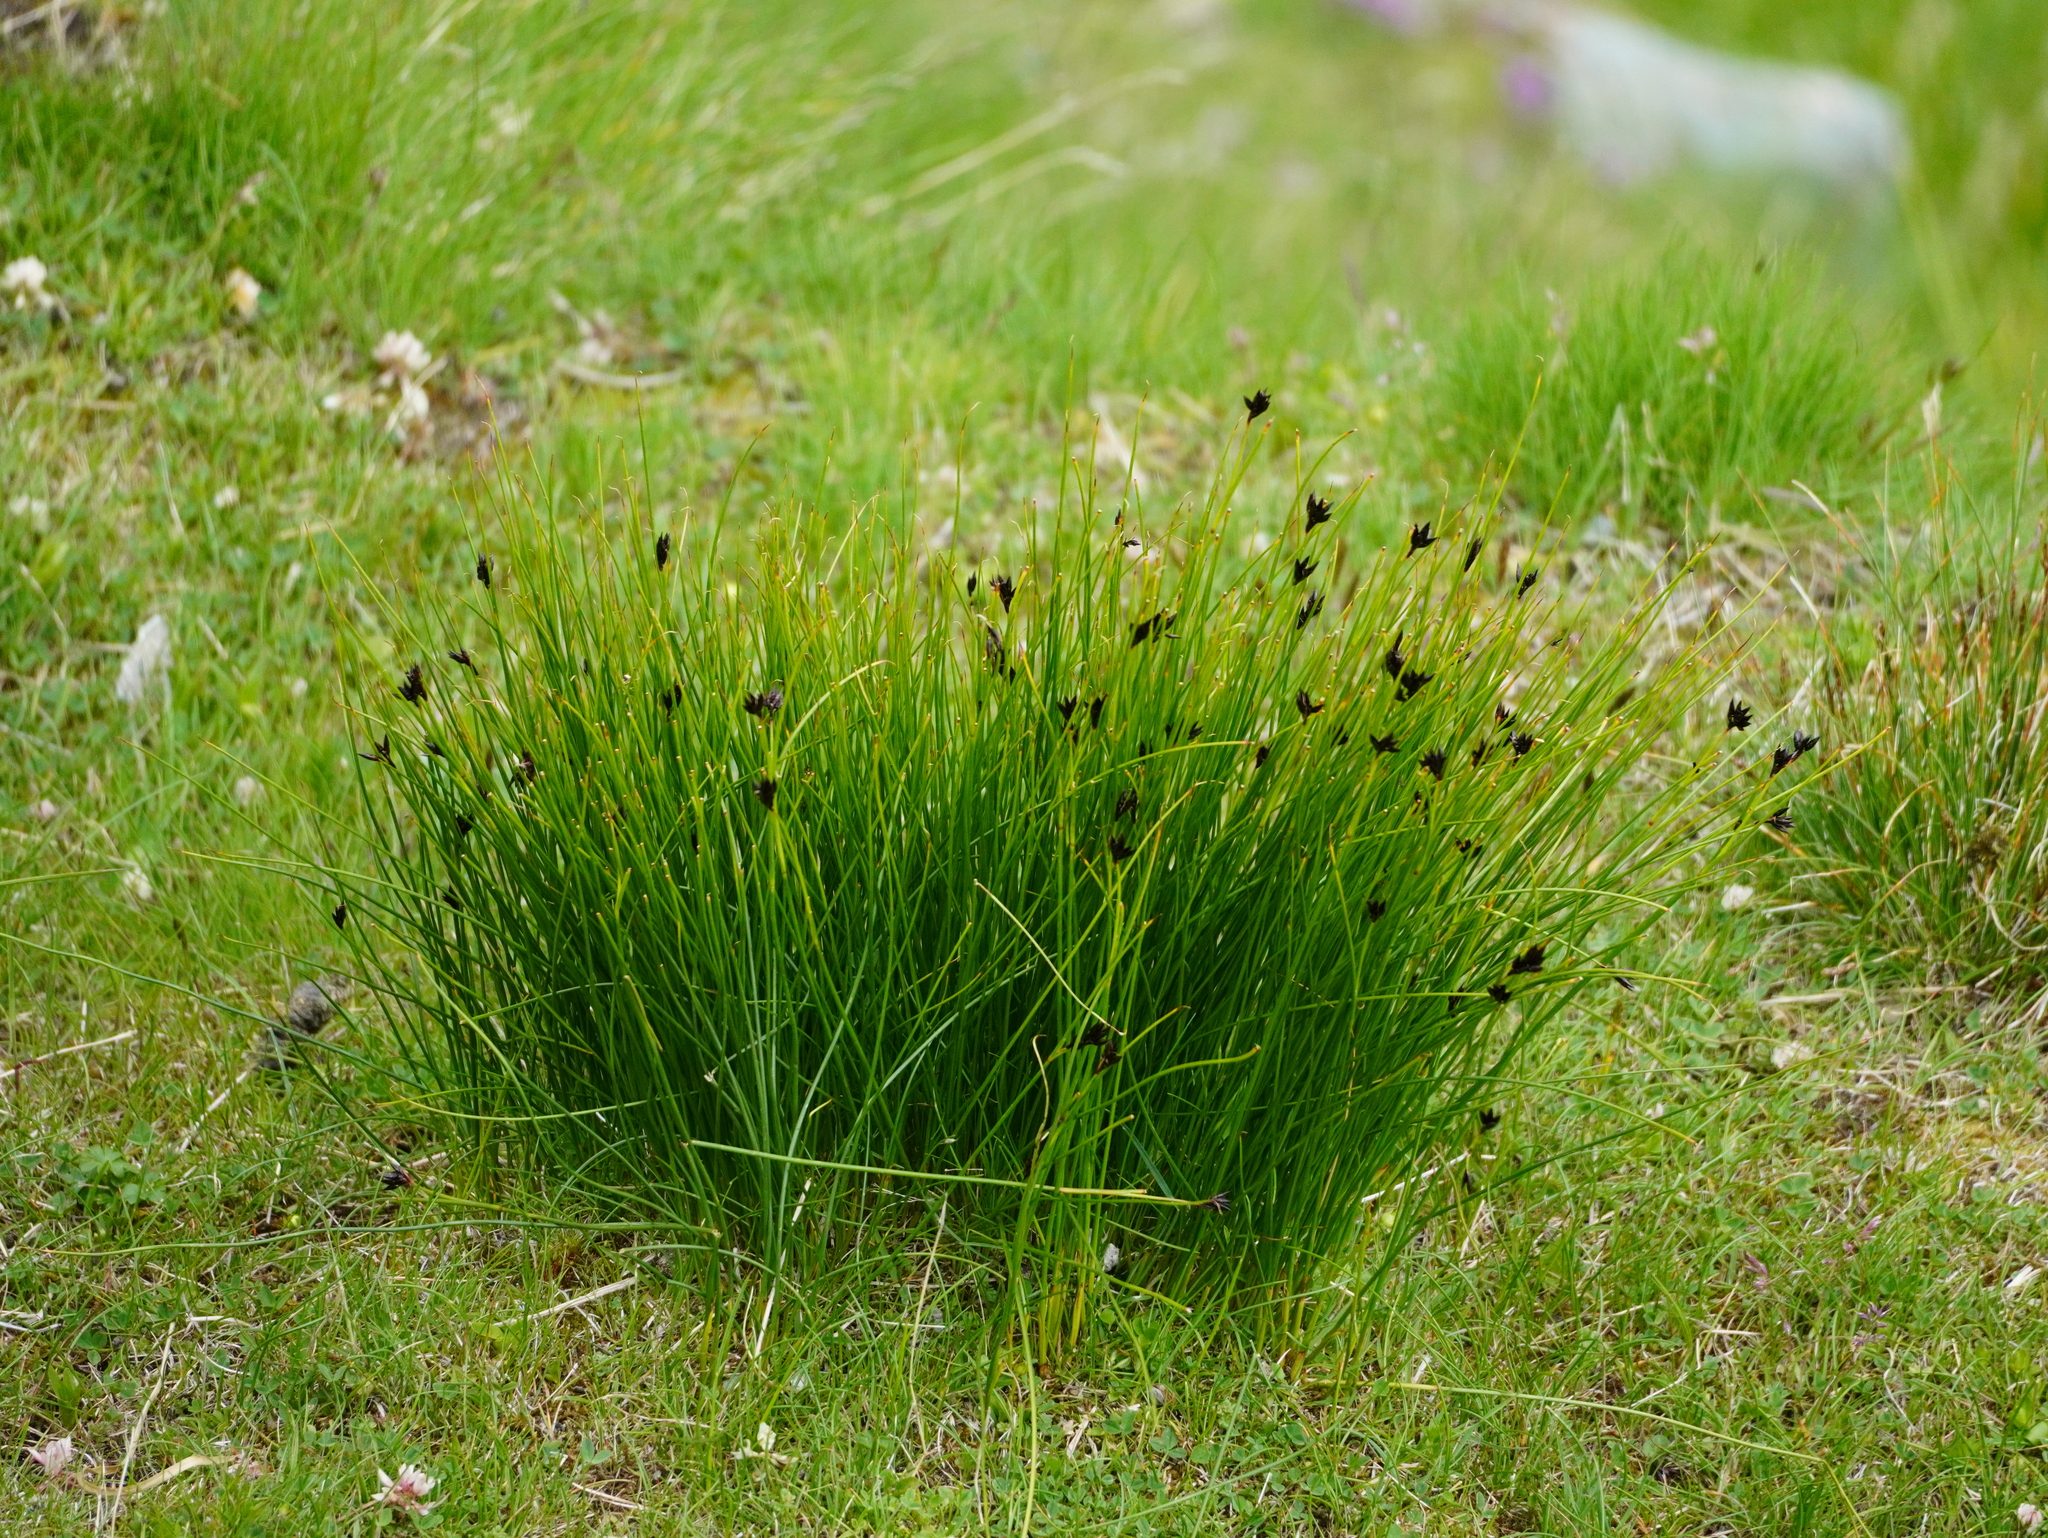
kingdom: Plantae
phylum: Tracheophyta
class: Liliopsida
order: Poales
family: Juncaceae
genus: Juncus
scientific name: Juncus jacquinii
